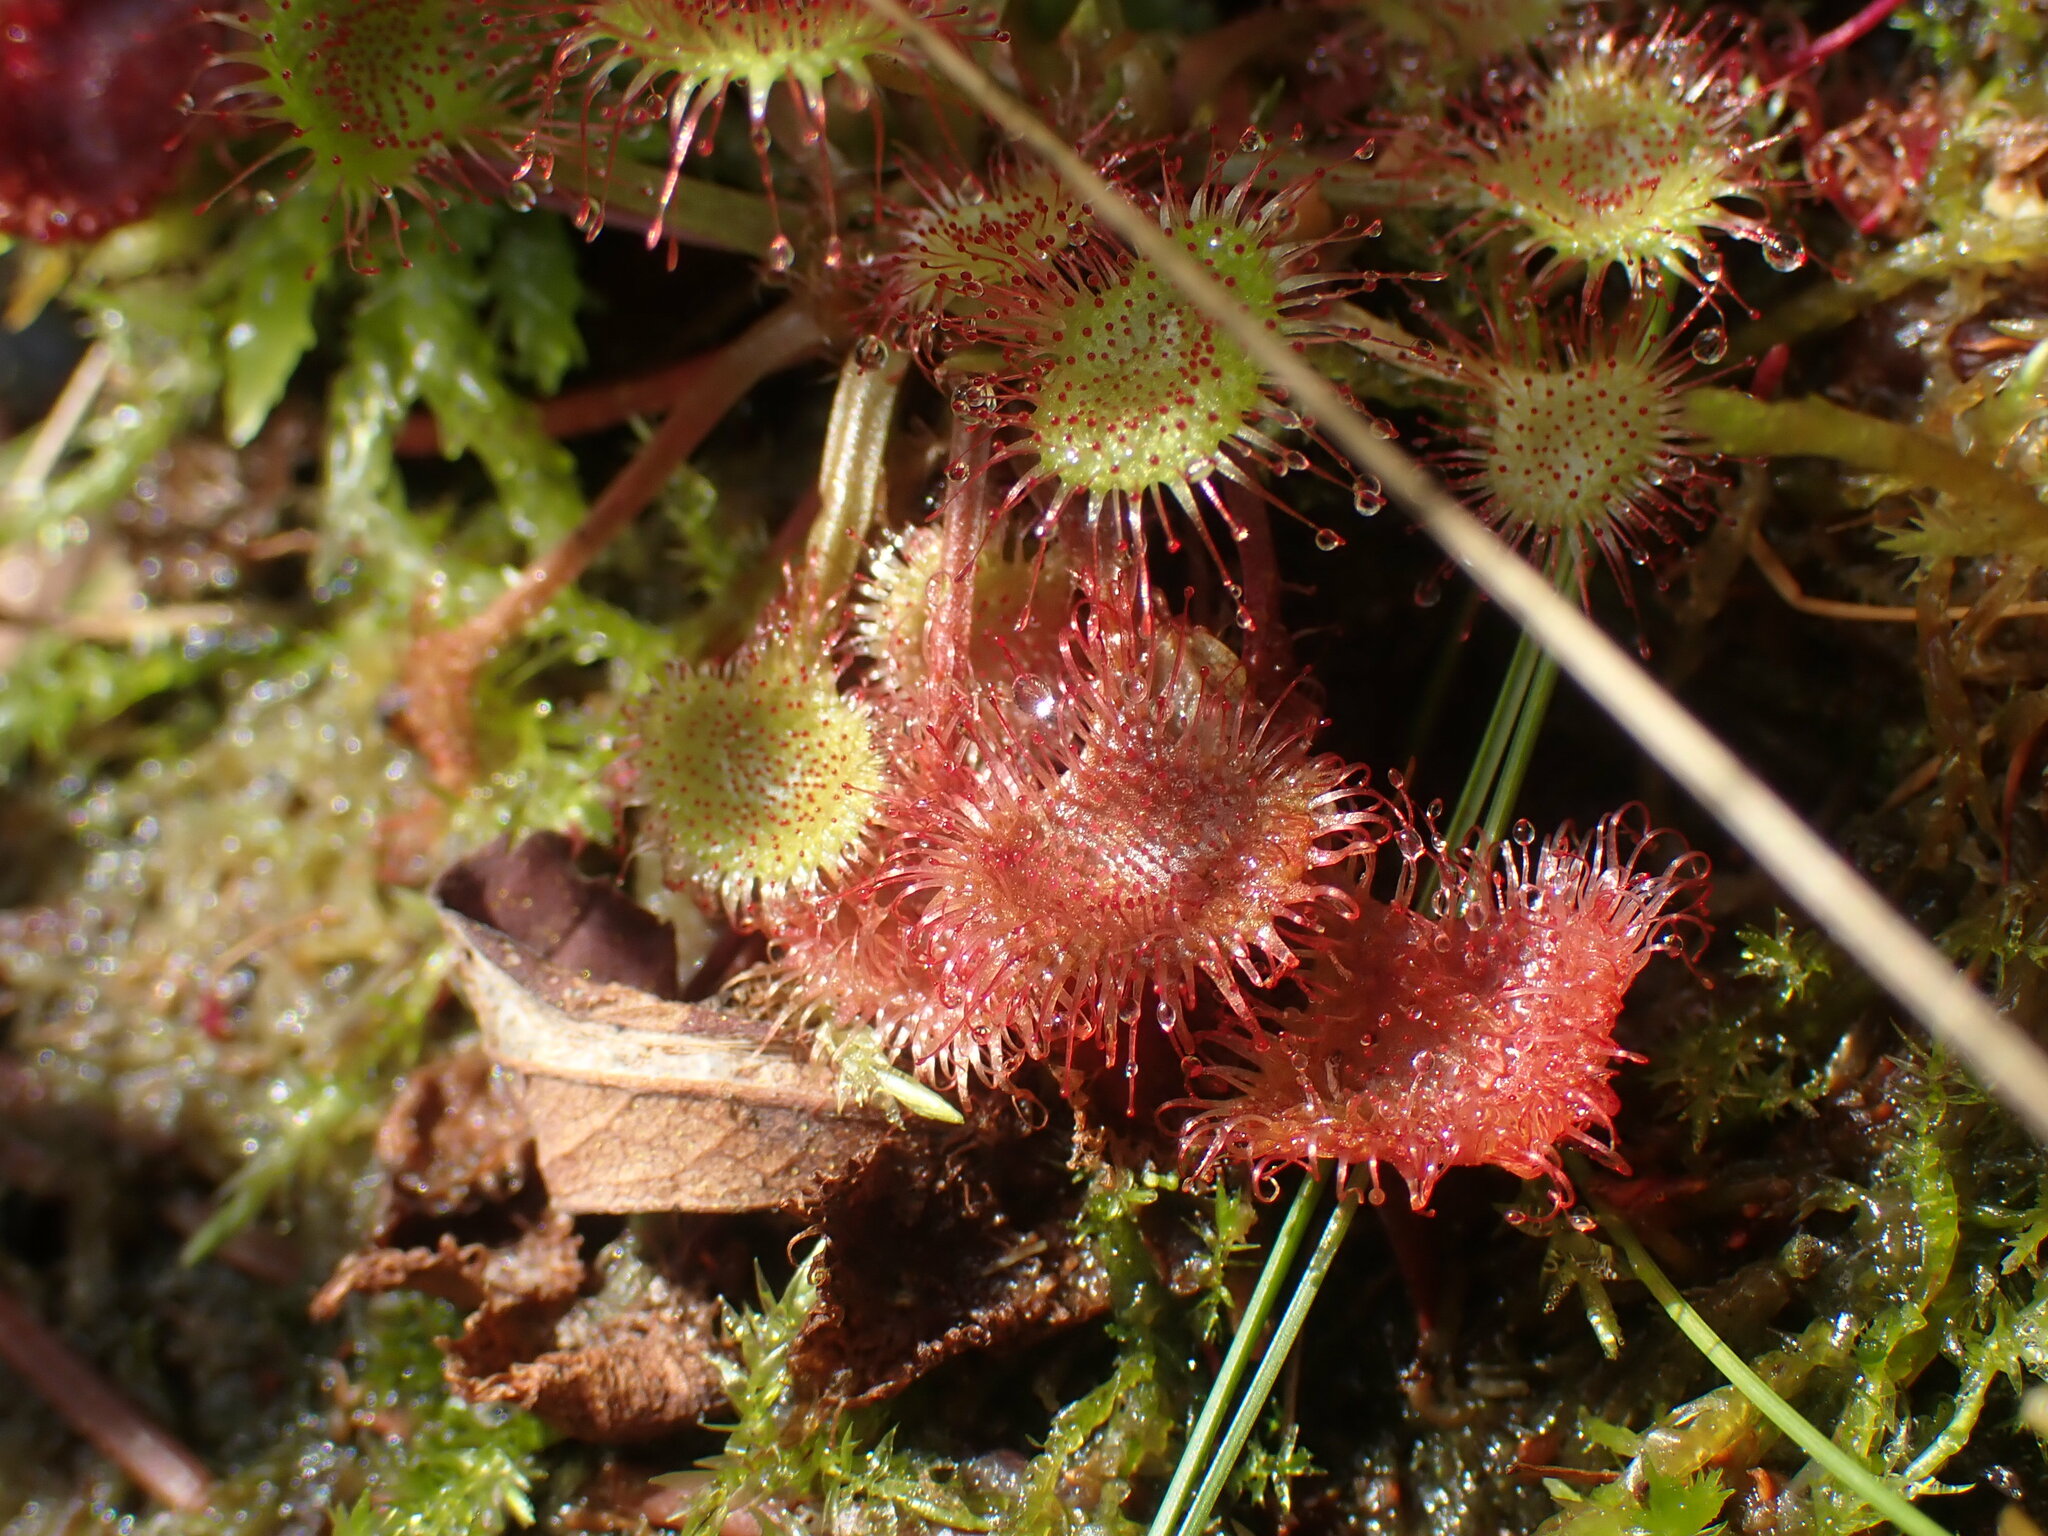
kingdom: Plantae
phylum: Tracheophyta
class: Magnoliopsida
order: Caryophyllales
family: Droseraceae
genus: Drosera
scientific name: Drosera rotundifolia
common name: Round-leaved sundew
